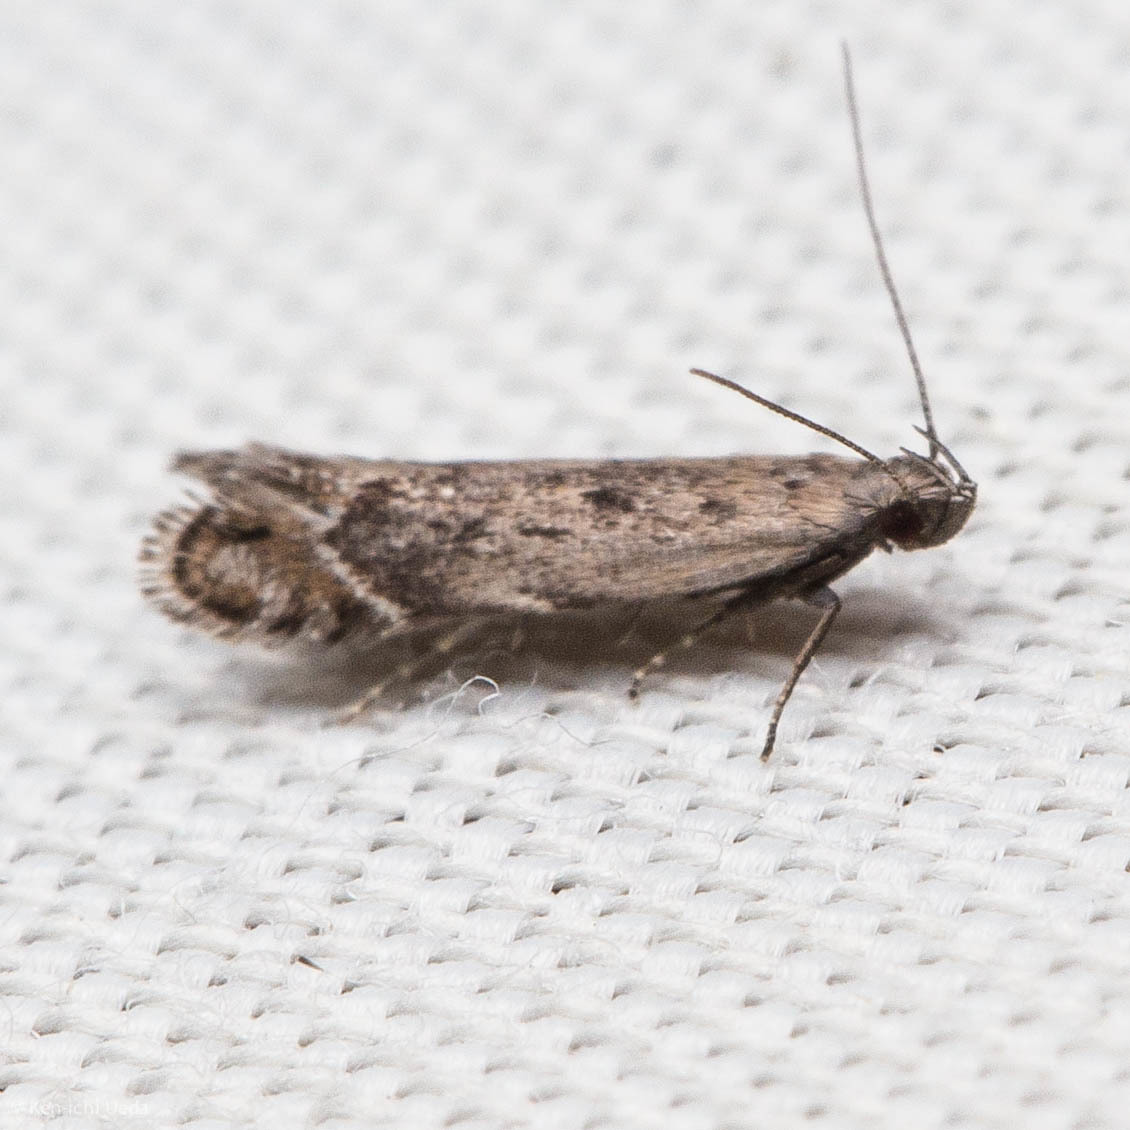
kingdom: Animalia
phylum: Arthropoda
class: Insecta
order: Lepidoptera
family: Gelechiidae
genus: Battaristis
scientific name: Battaristis concinnusella
